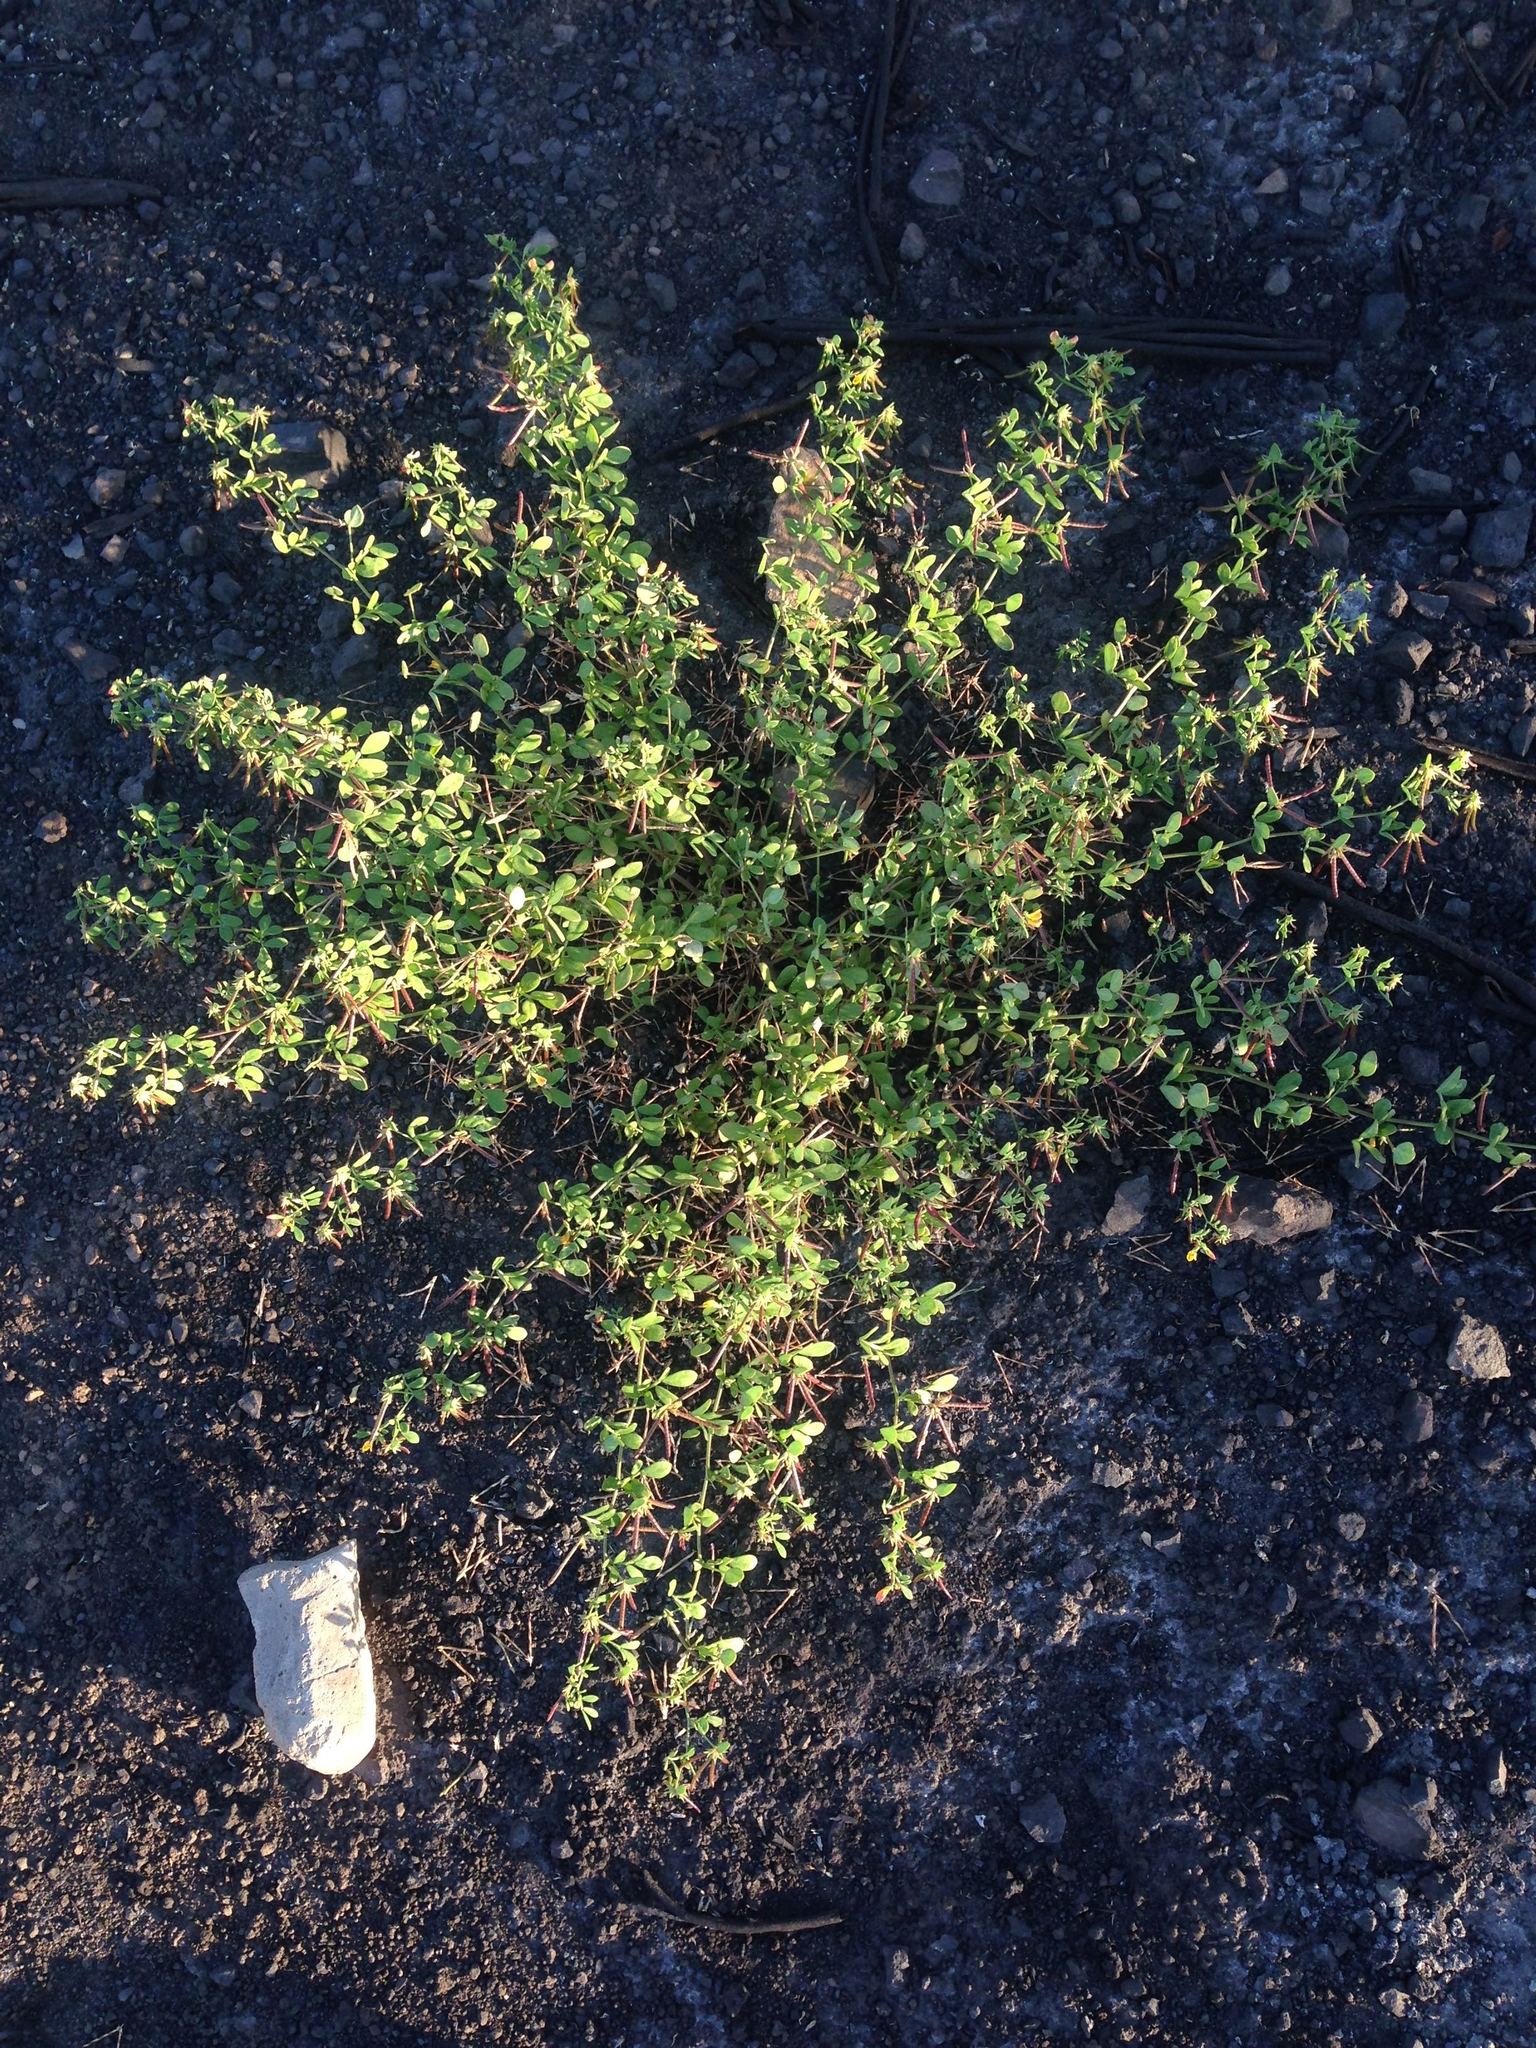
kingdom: Plantae
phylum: Tracheophyta
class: Magnoliopsida
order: Fabales
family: Fabaceae
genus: Acmispon
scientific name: Acmispon americanus
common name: American bird's-foot trefoil
